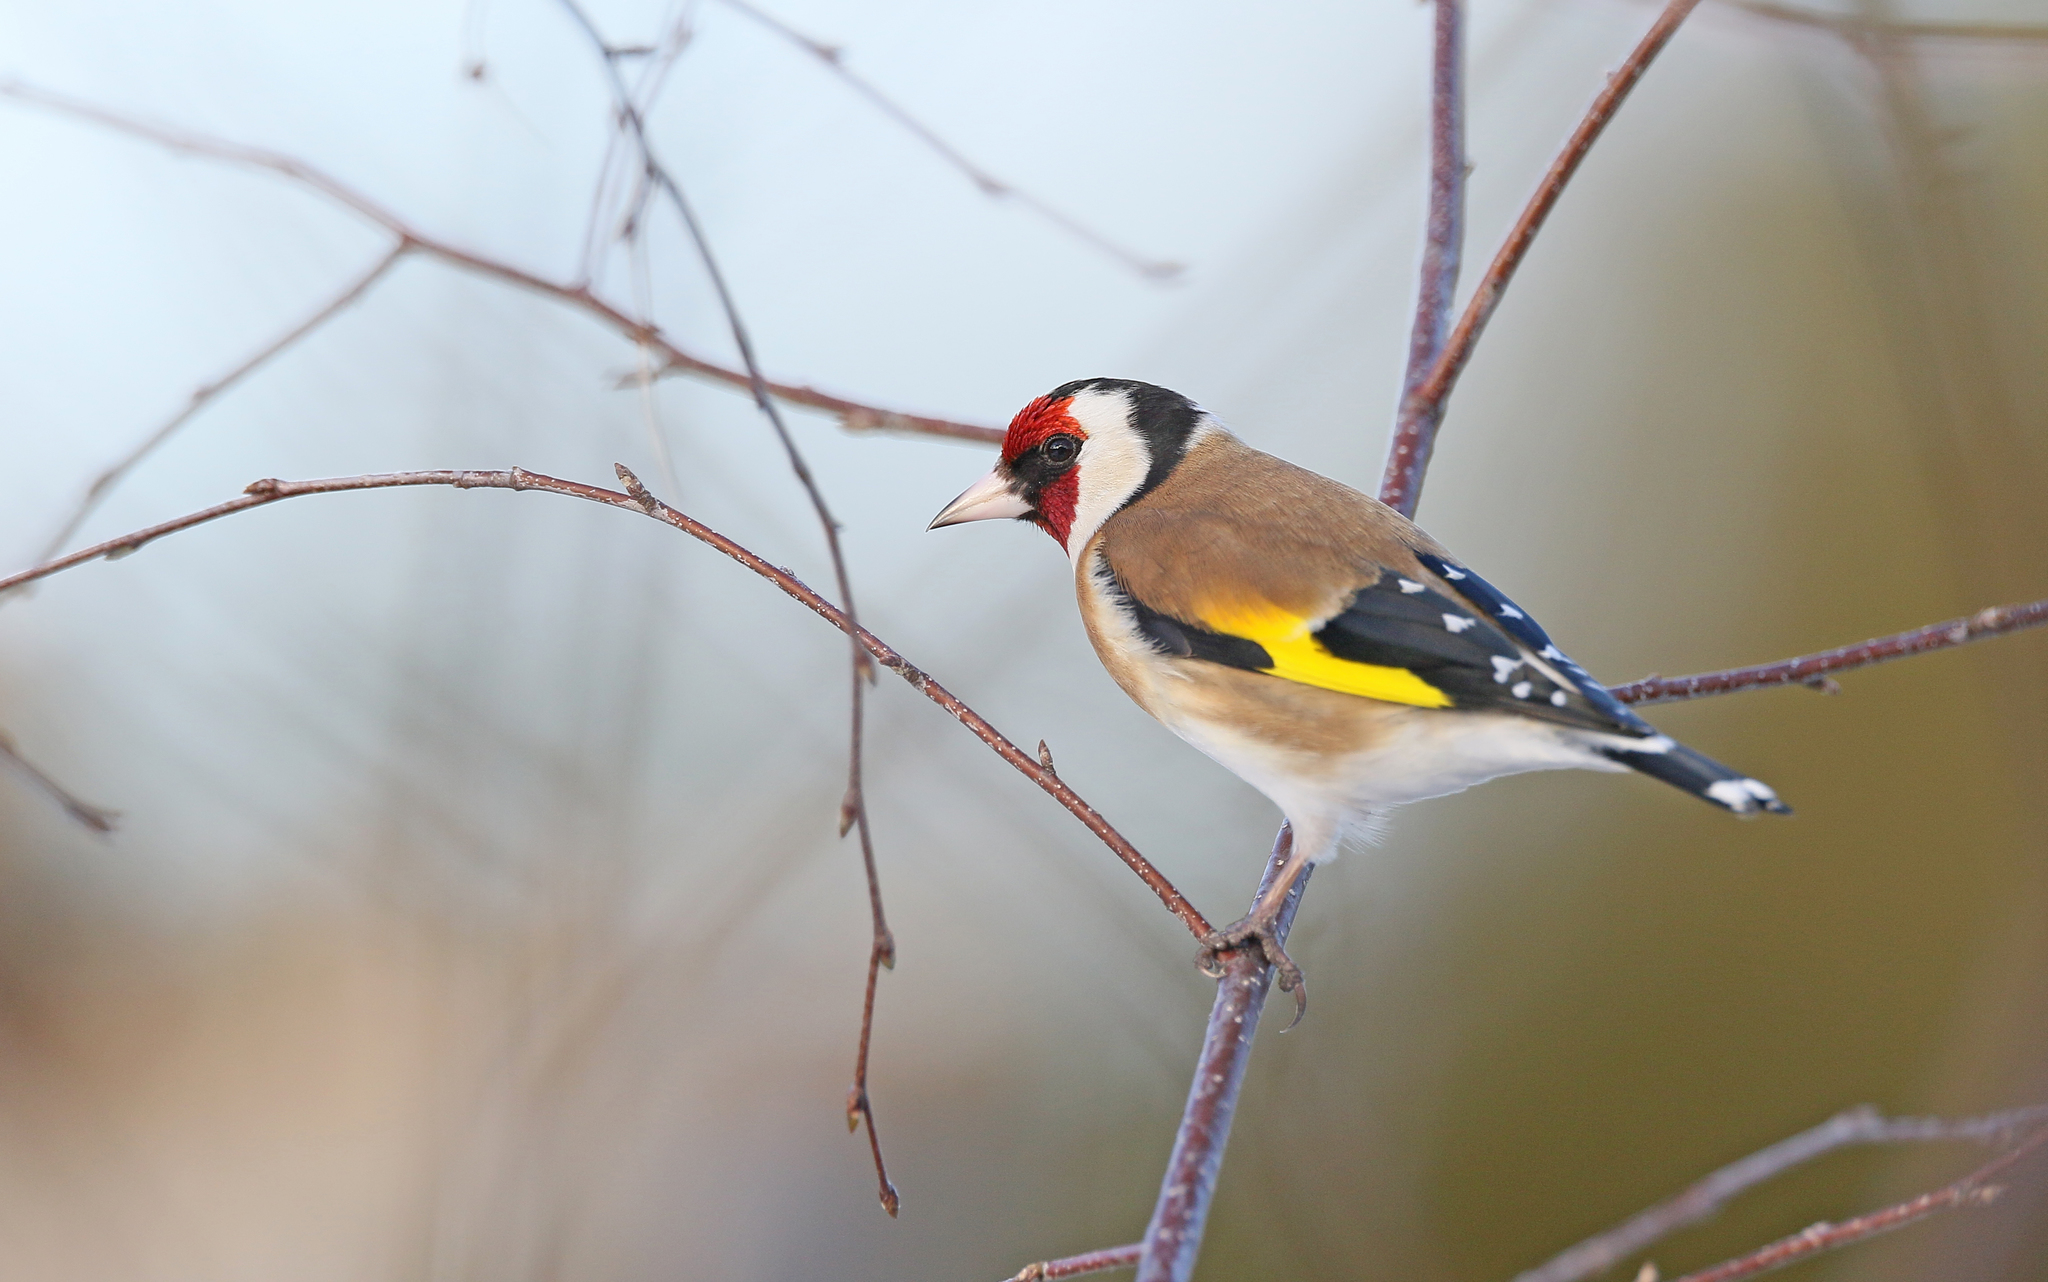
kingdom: Animalia
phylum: Chordata
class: Aves
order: Passeriformes
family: Fringillidae
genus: Carduelis
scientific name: Carduelis carduelis
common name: European goldfinch
